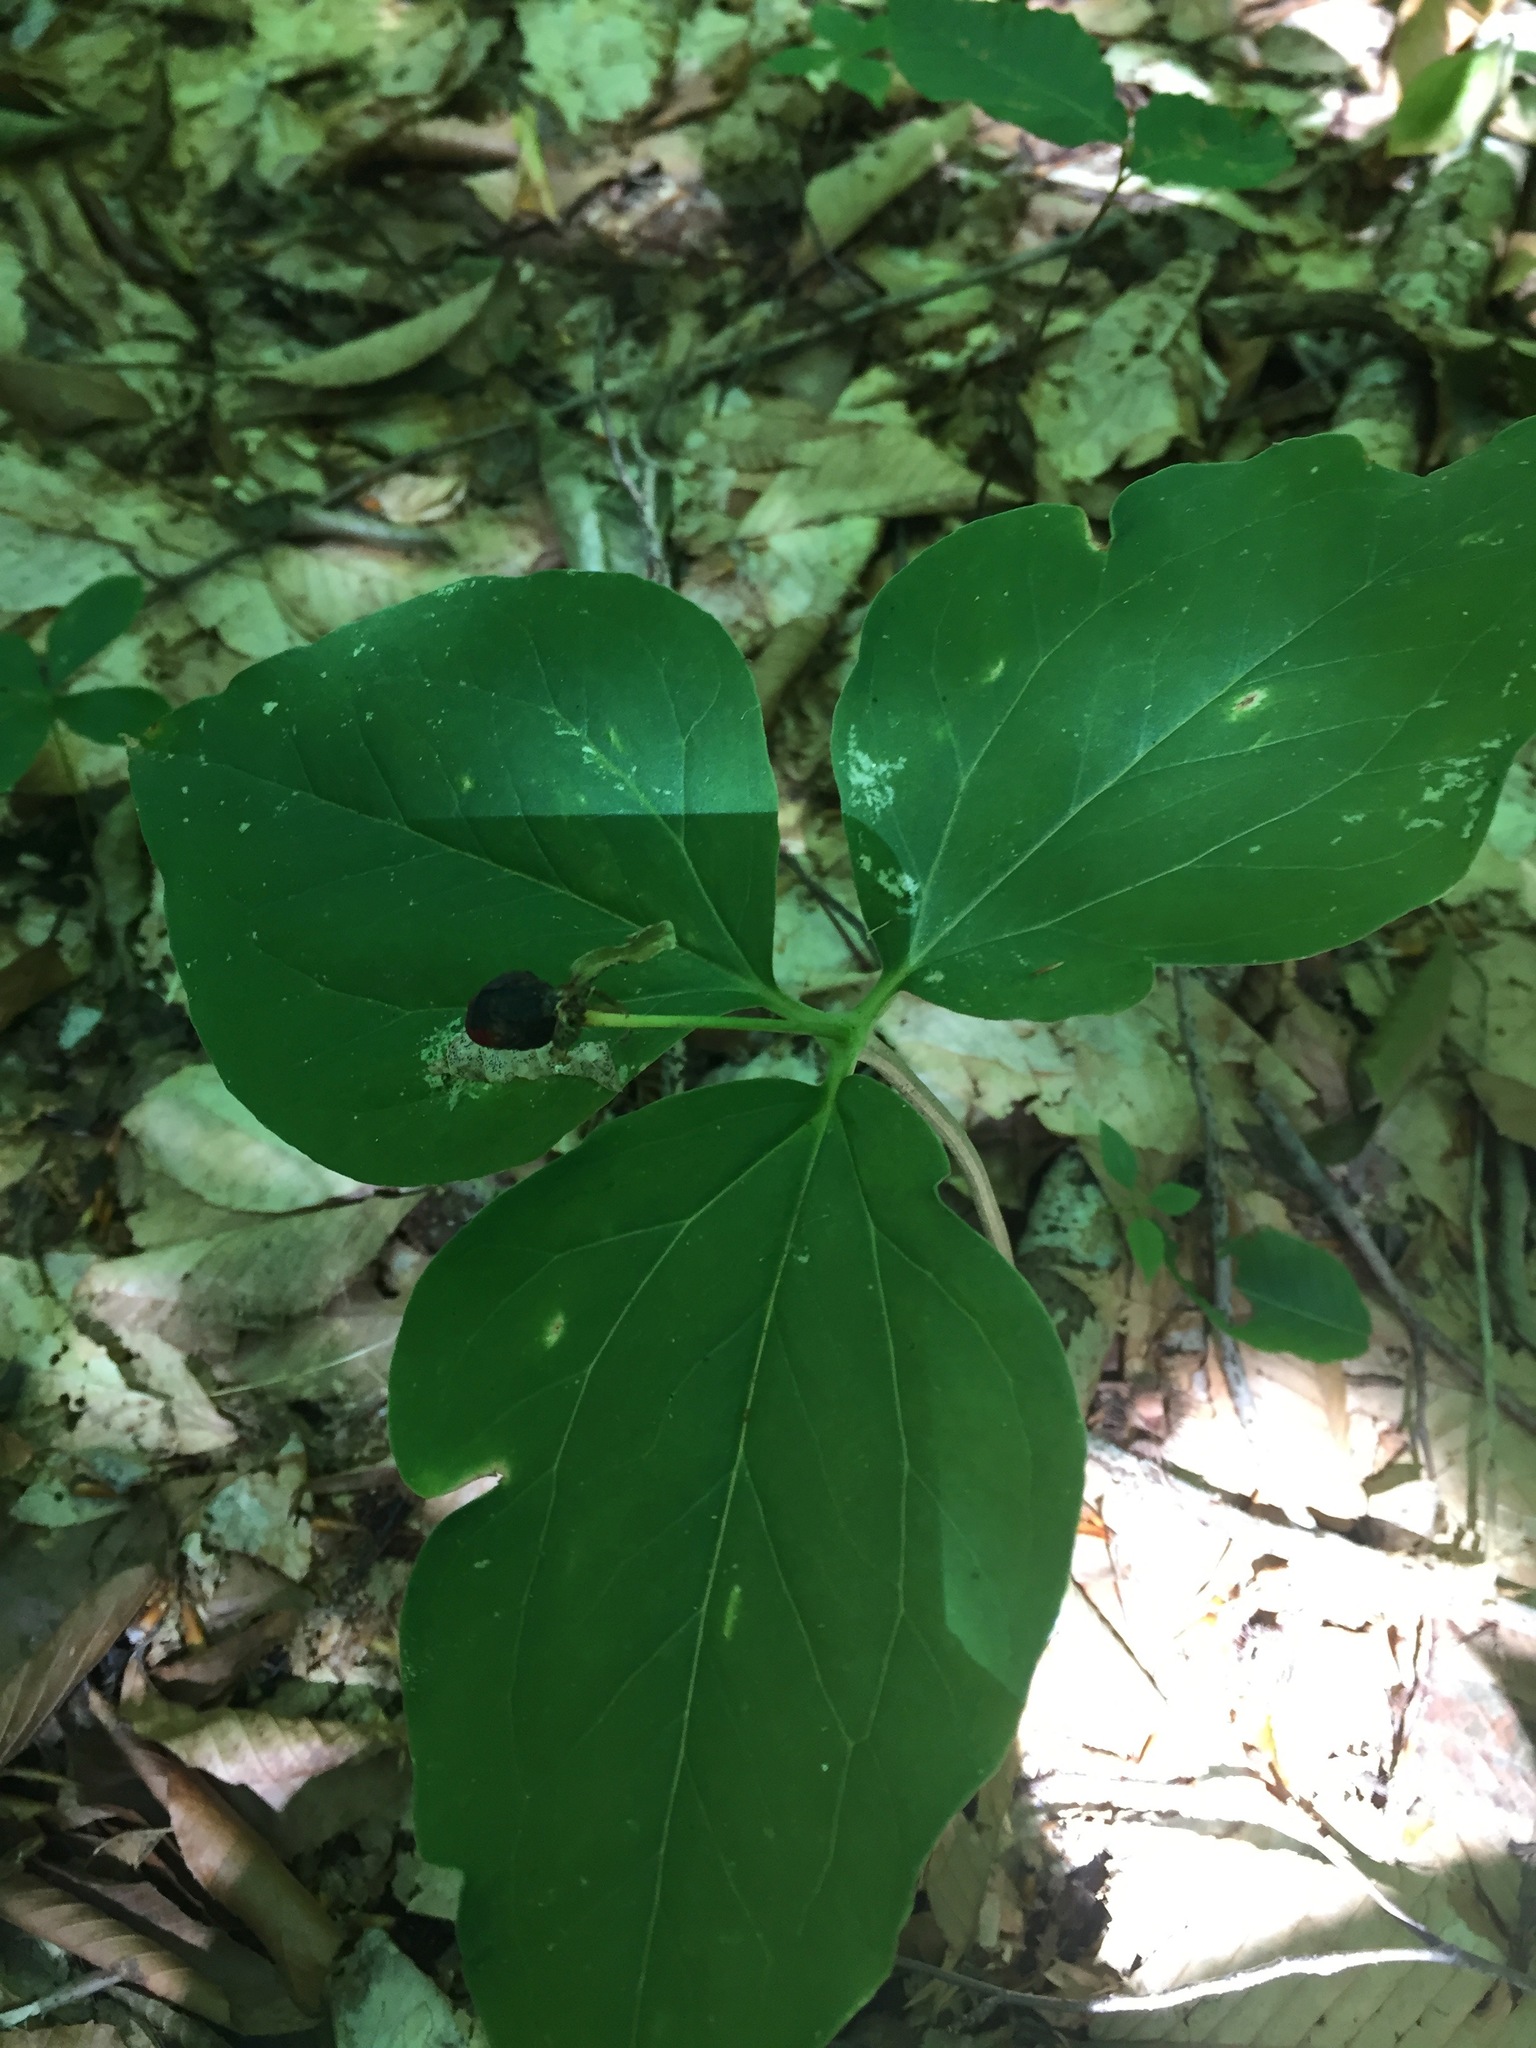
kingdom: Plantae
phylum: Tracheophyta
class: Liliopsida
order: Liliales
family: Melanthiaceae
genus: Trillium
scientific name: Trillium undulatum
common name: Paint trillium
